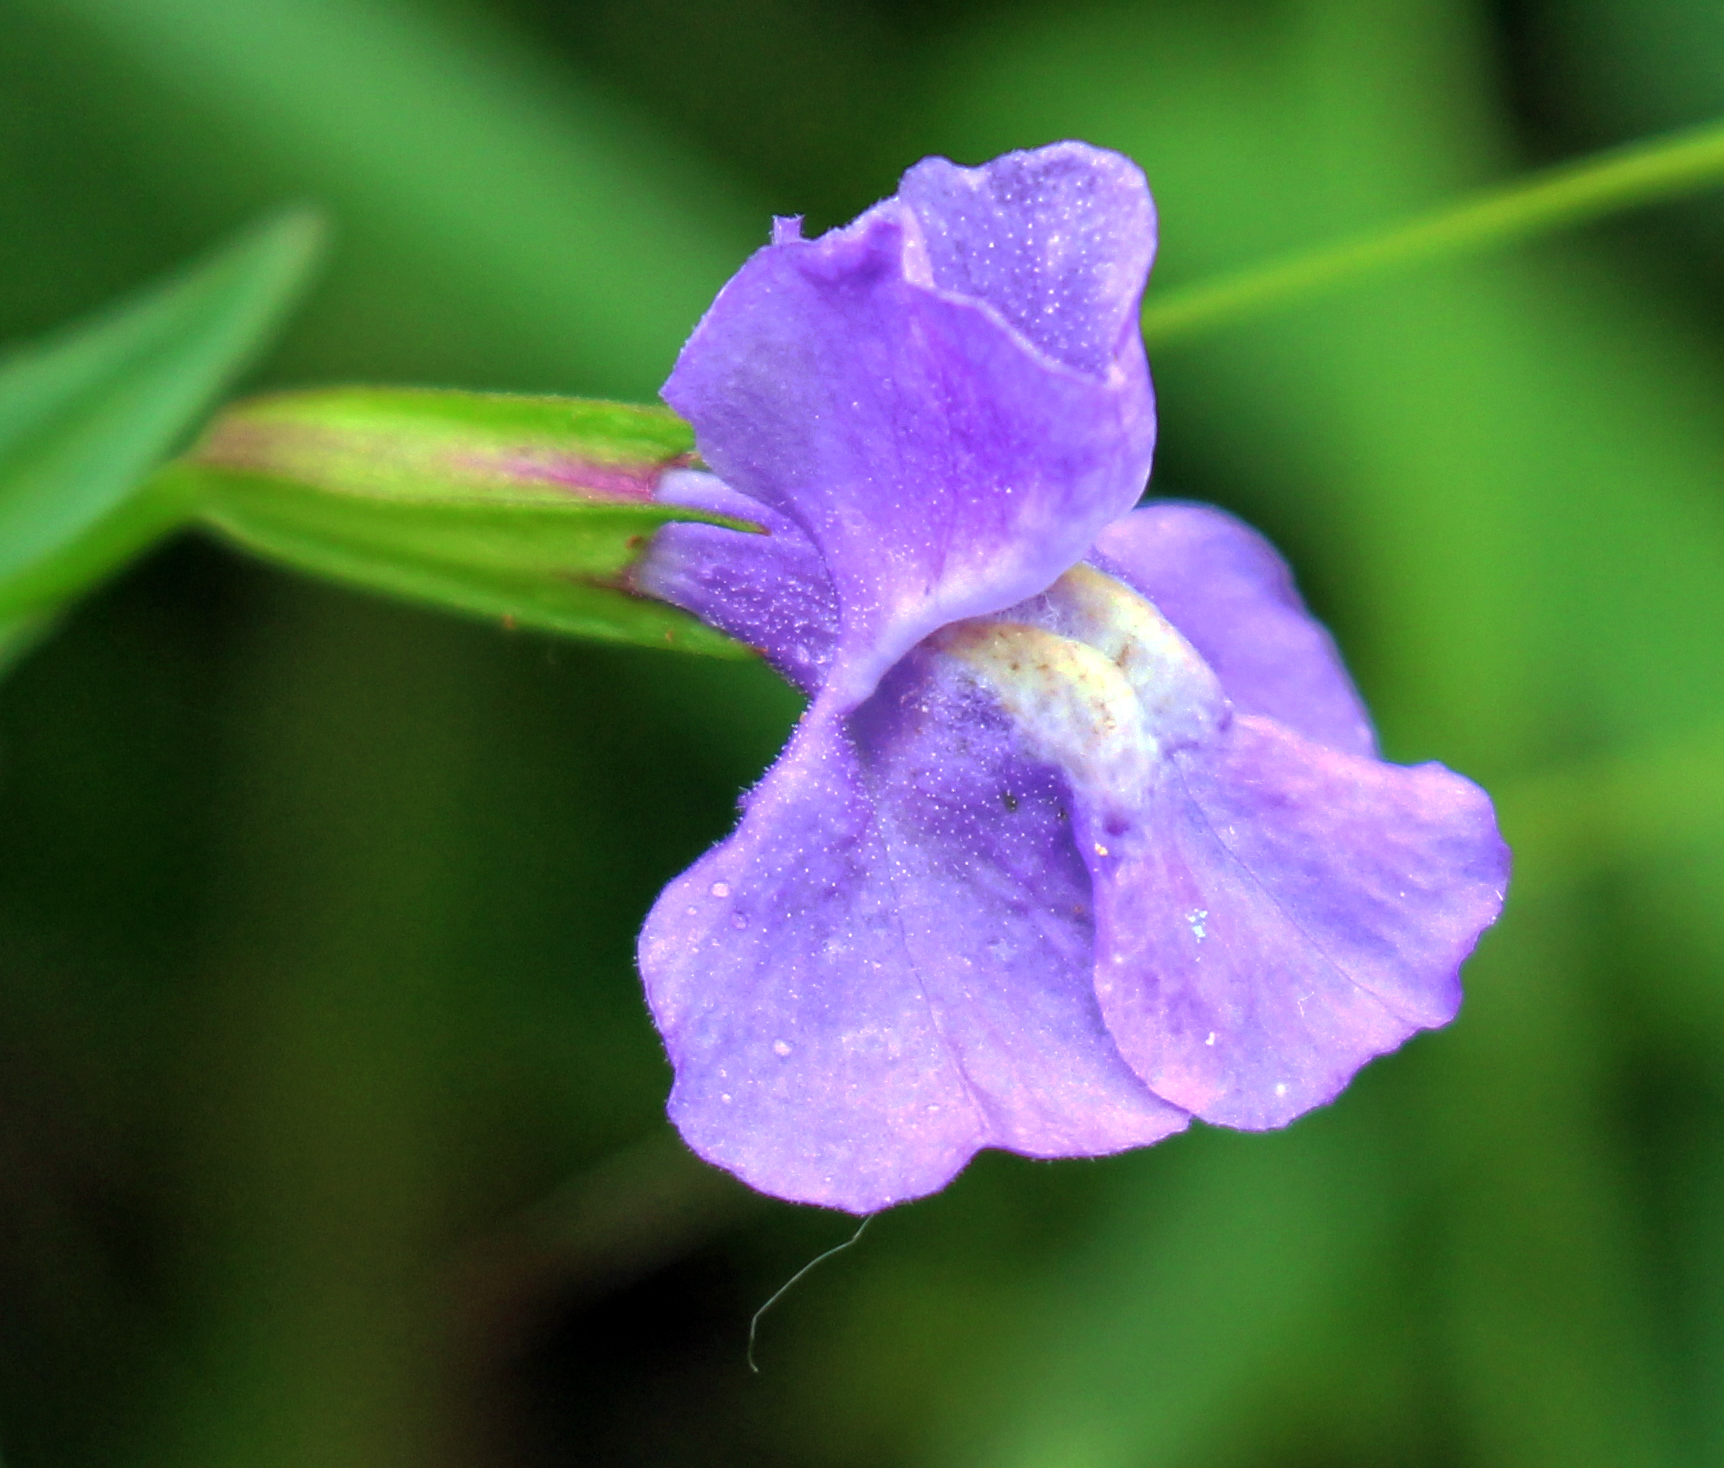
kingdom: Plantae
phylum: Tracheophyta
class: Magnoliopsida
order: Lamiales
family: Phrymaceae
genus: Mimulus
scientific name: Mimulus ringens
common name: Allegheny monkeyflower
